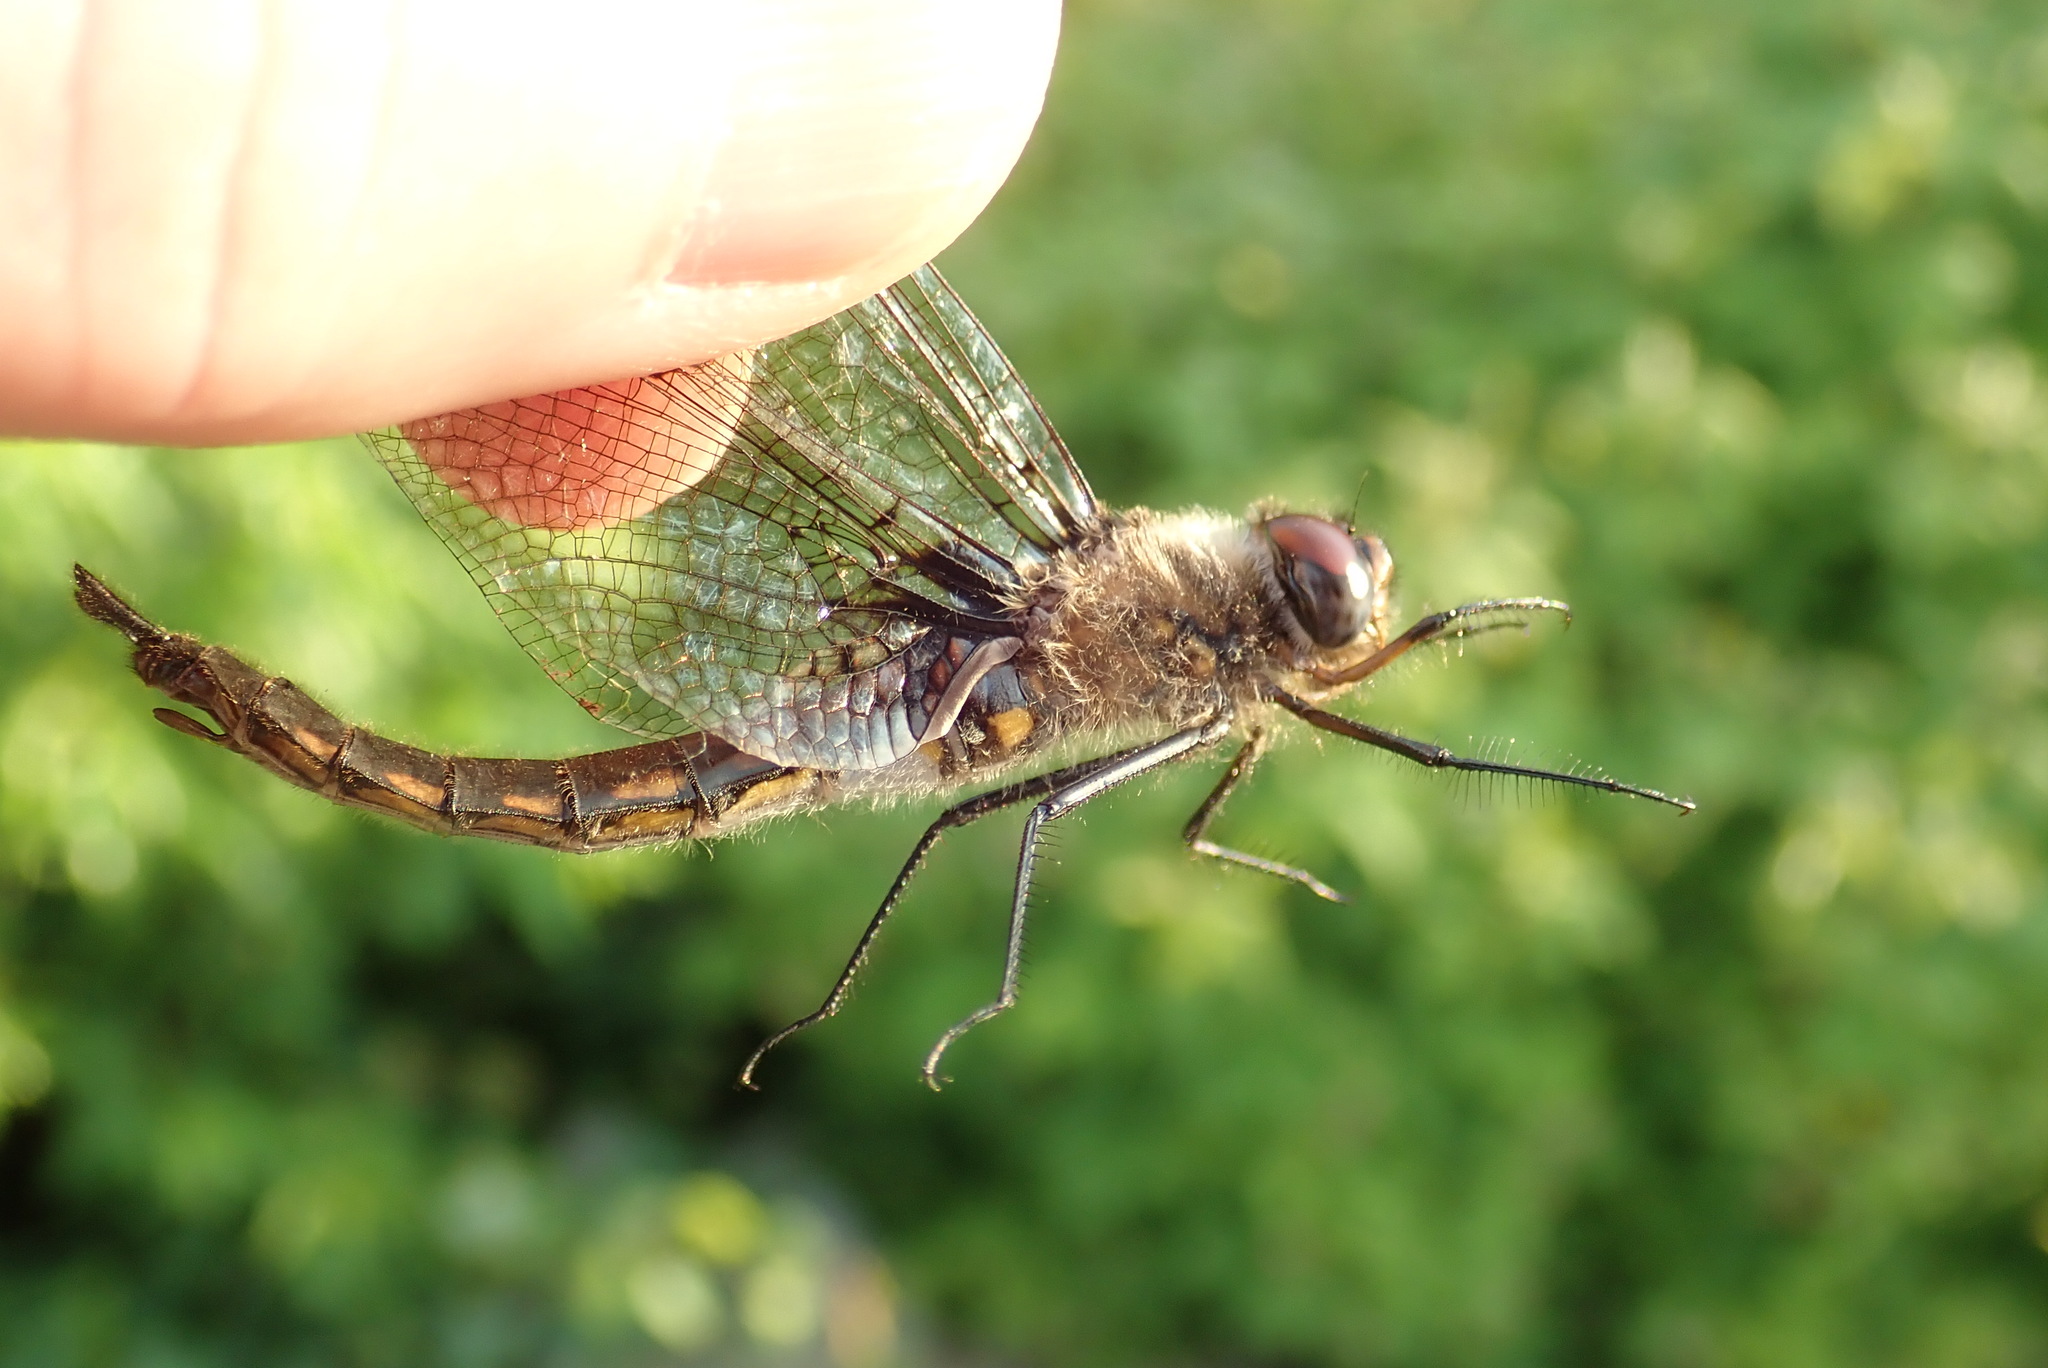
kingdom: Animalia
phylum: Arthropoda
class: Insecta
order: Odonata
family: Corduliidae
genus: Epitheca
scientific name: Epitheca spinigera
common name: Spiny baskettail
